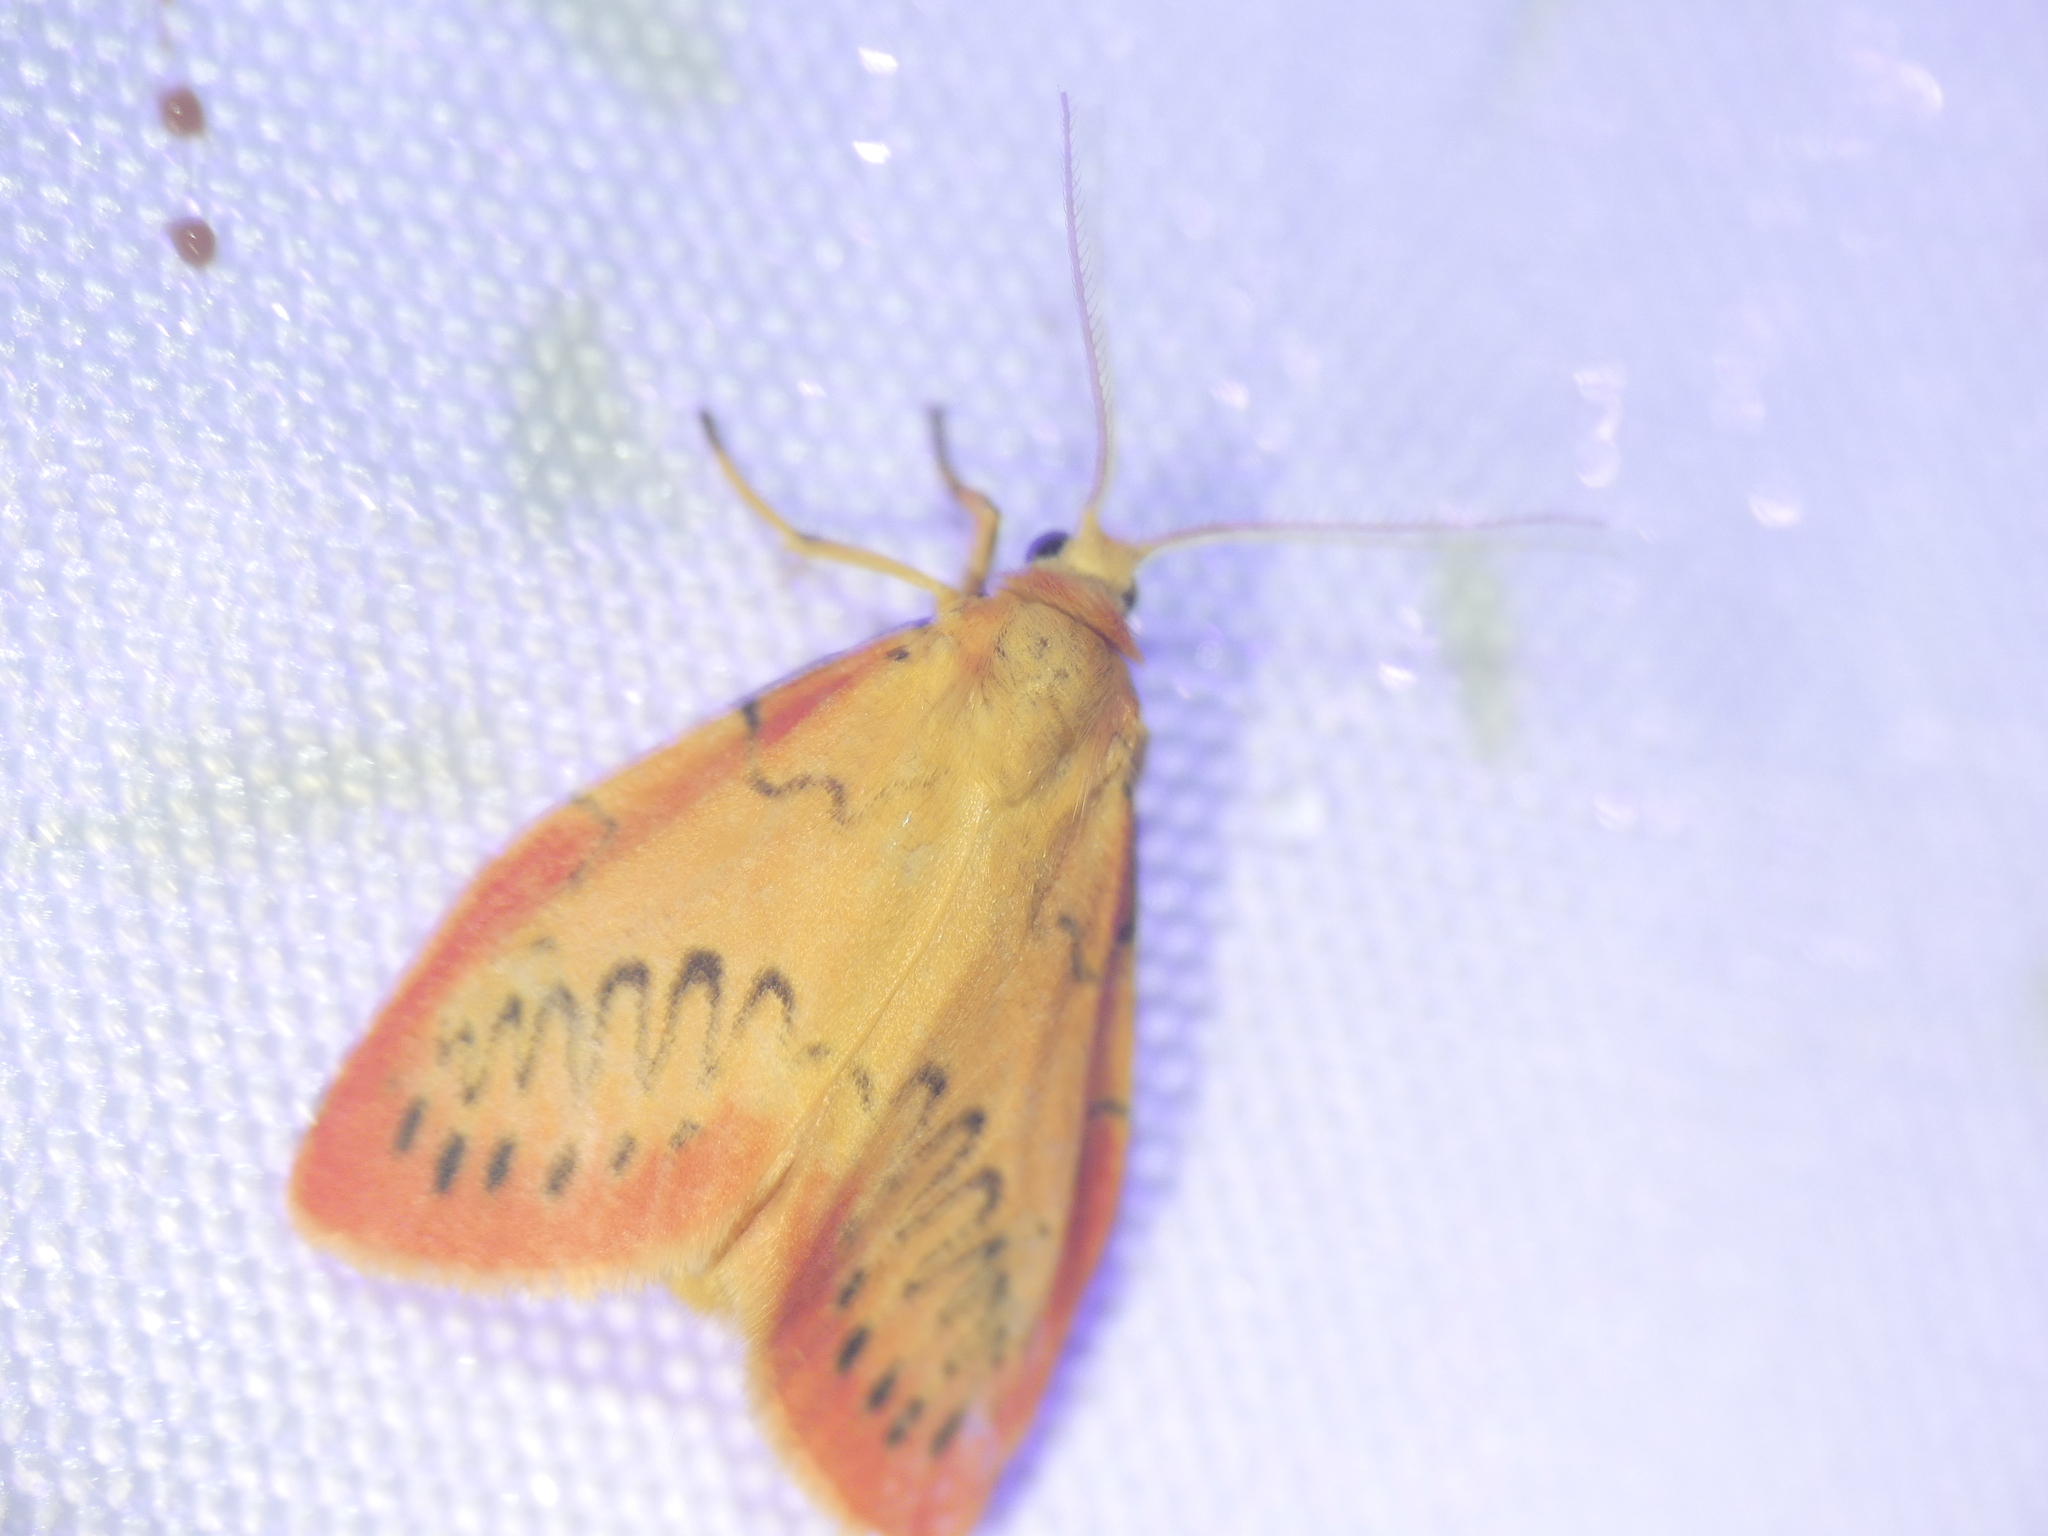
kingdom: Animalia
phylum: Arthropoda
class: Insecta
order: Lepidoptera
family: Erebidae
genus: Miltochrista
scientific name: Miltochrista miniata
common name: Rosy footman
